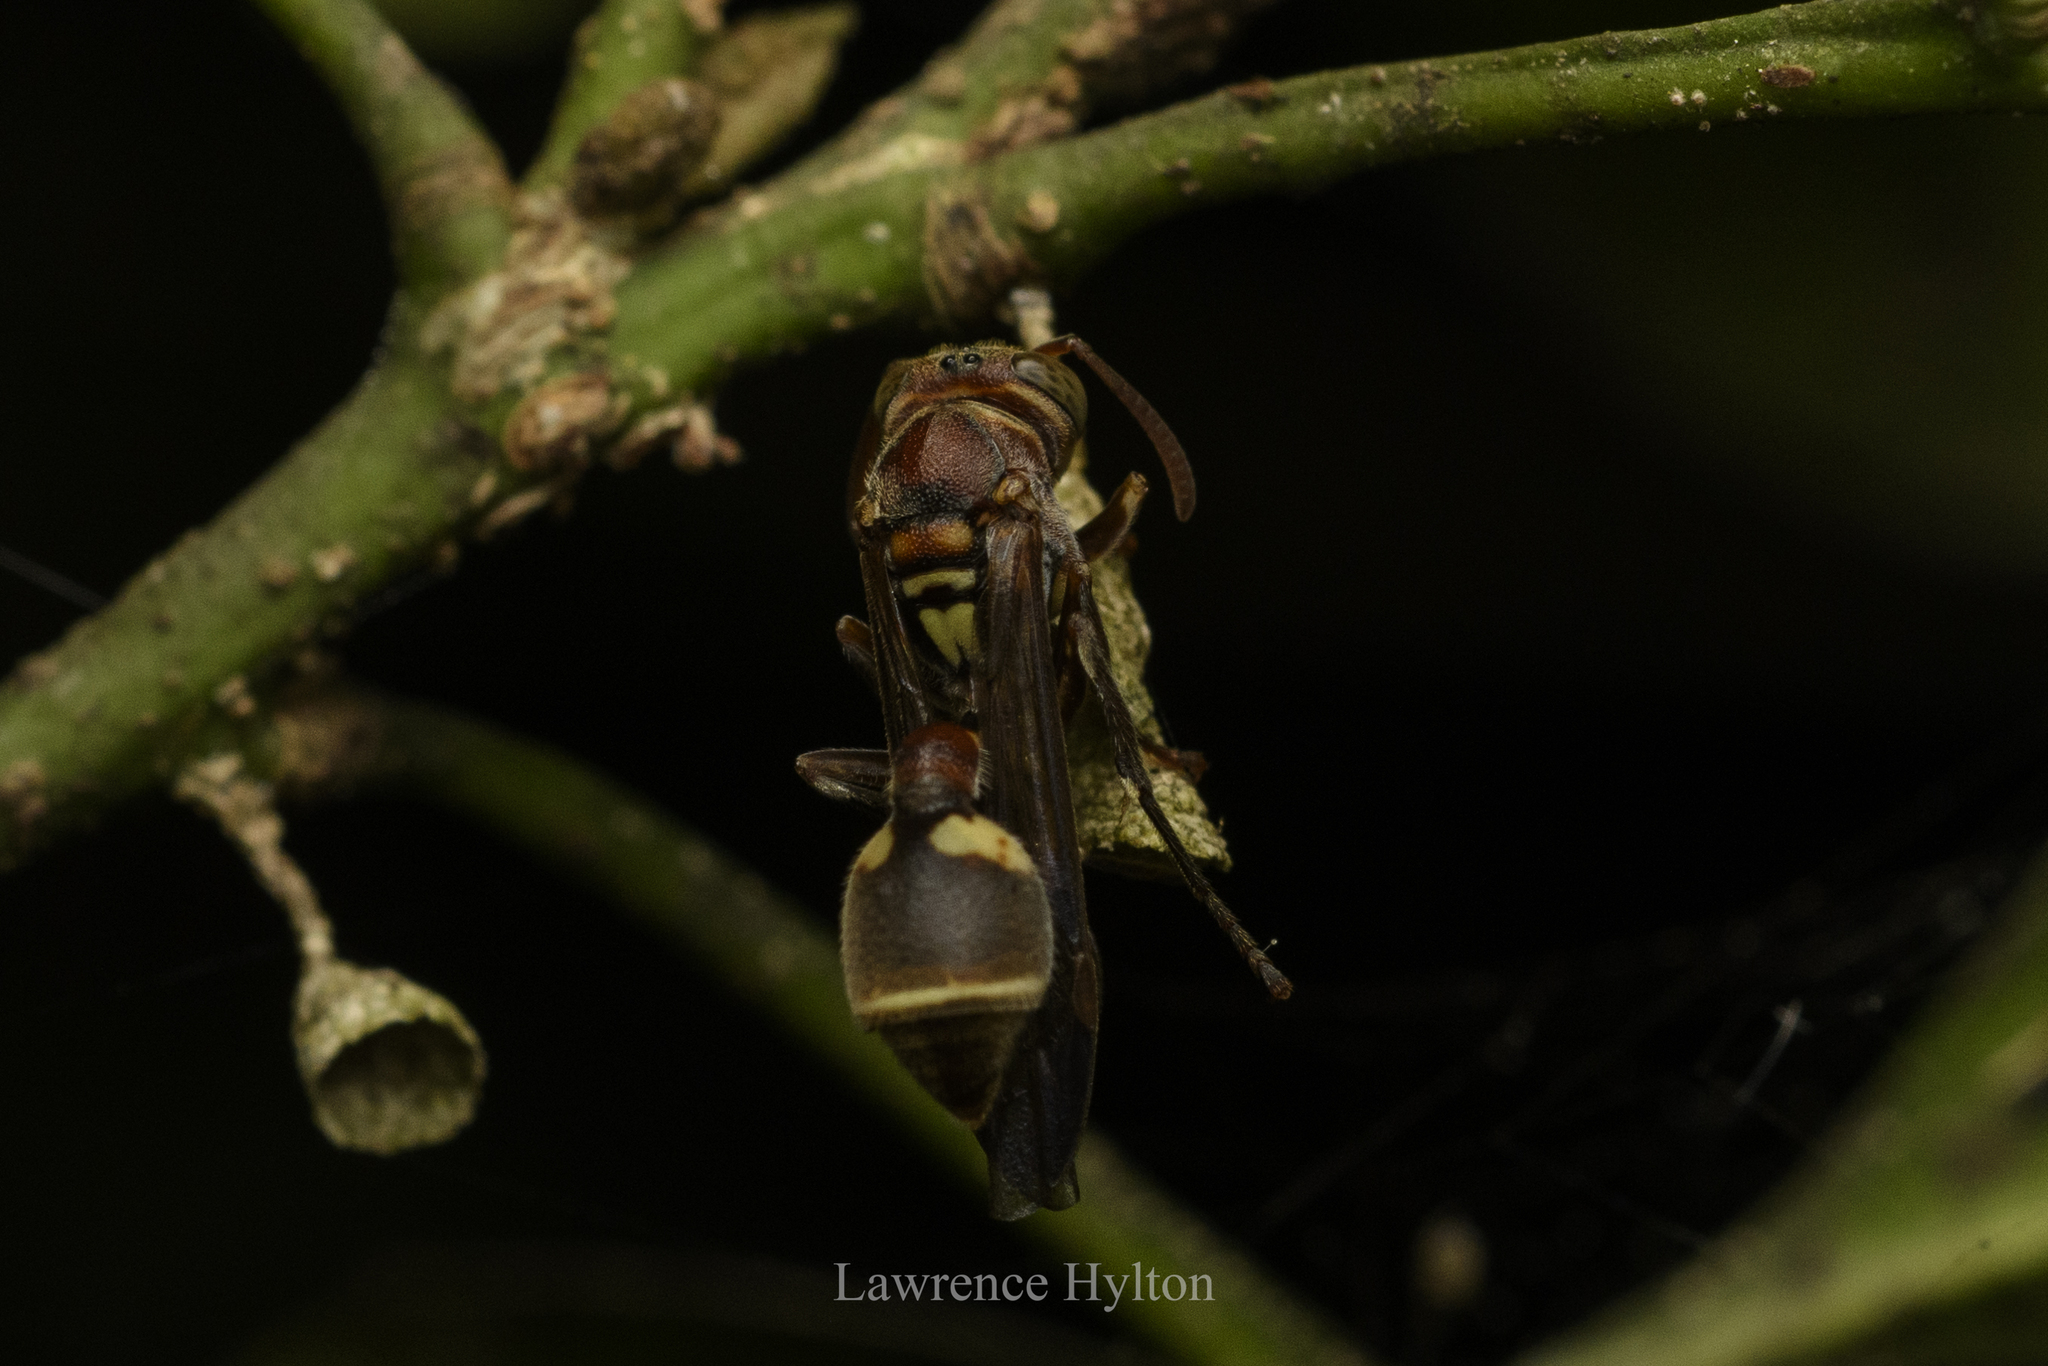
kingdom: Animalia
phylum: Arthropoda
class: Insecta
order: Hymenoptera
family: Vespidae
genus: Ropalidia
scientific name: Ropalidia stigma
